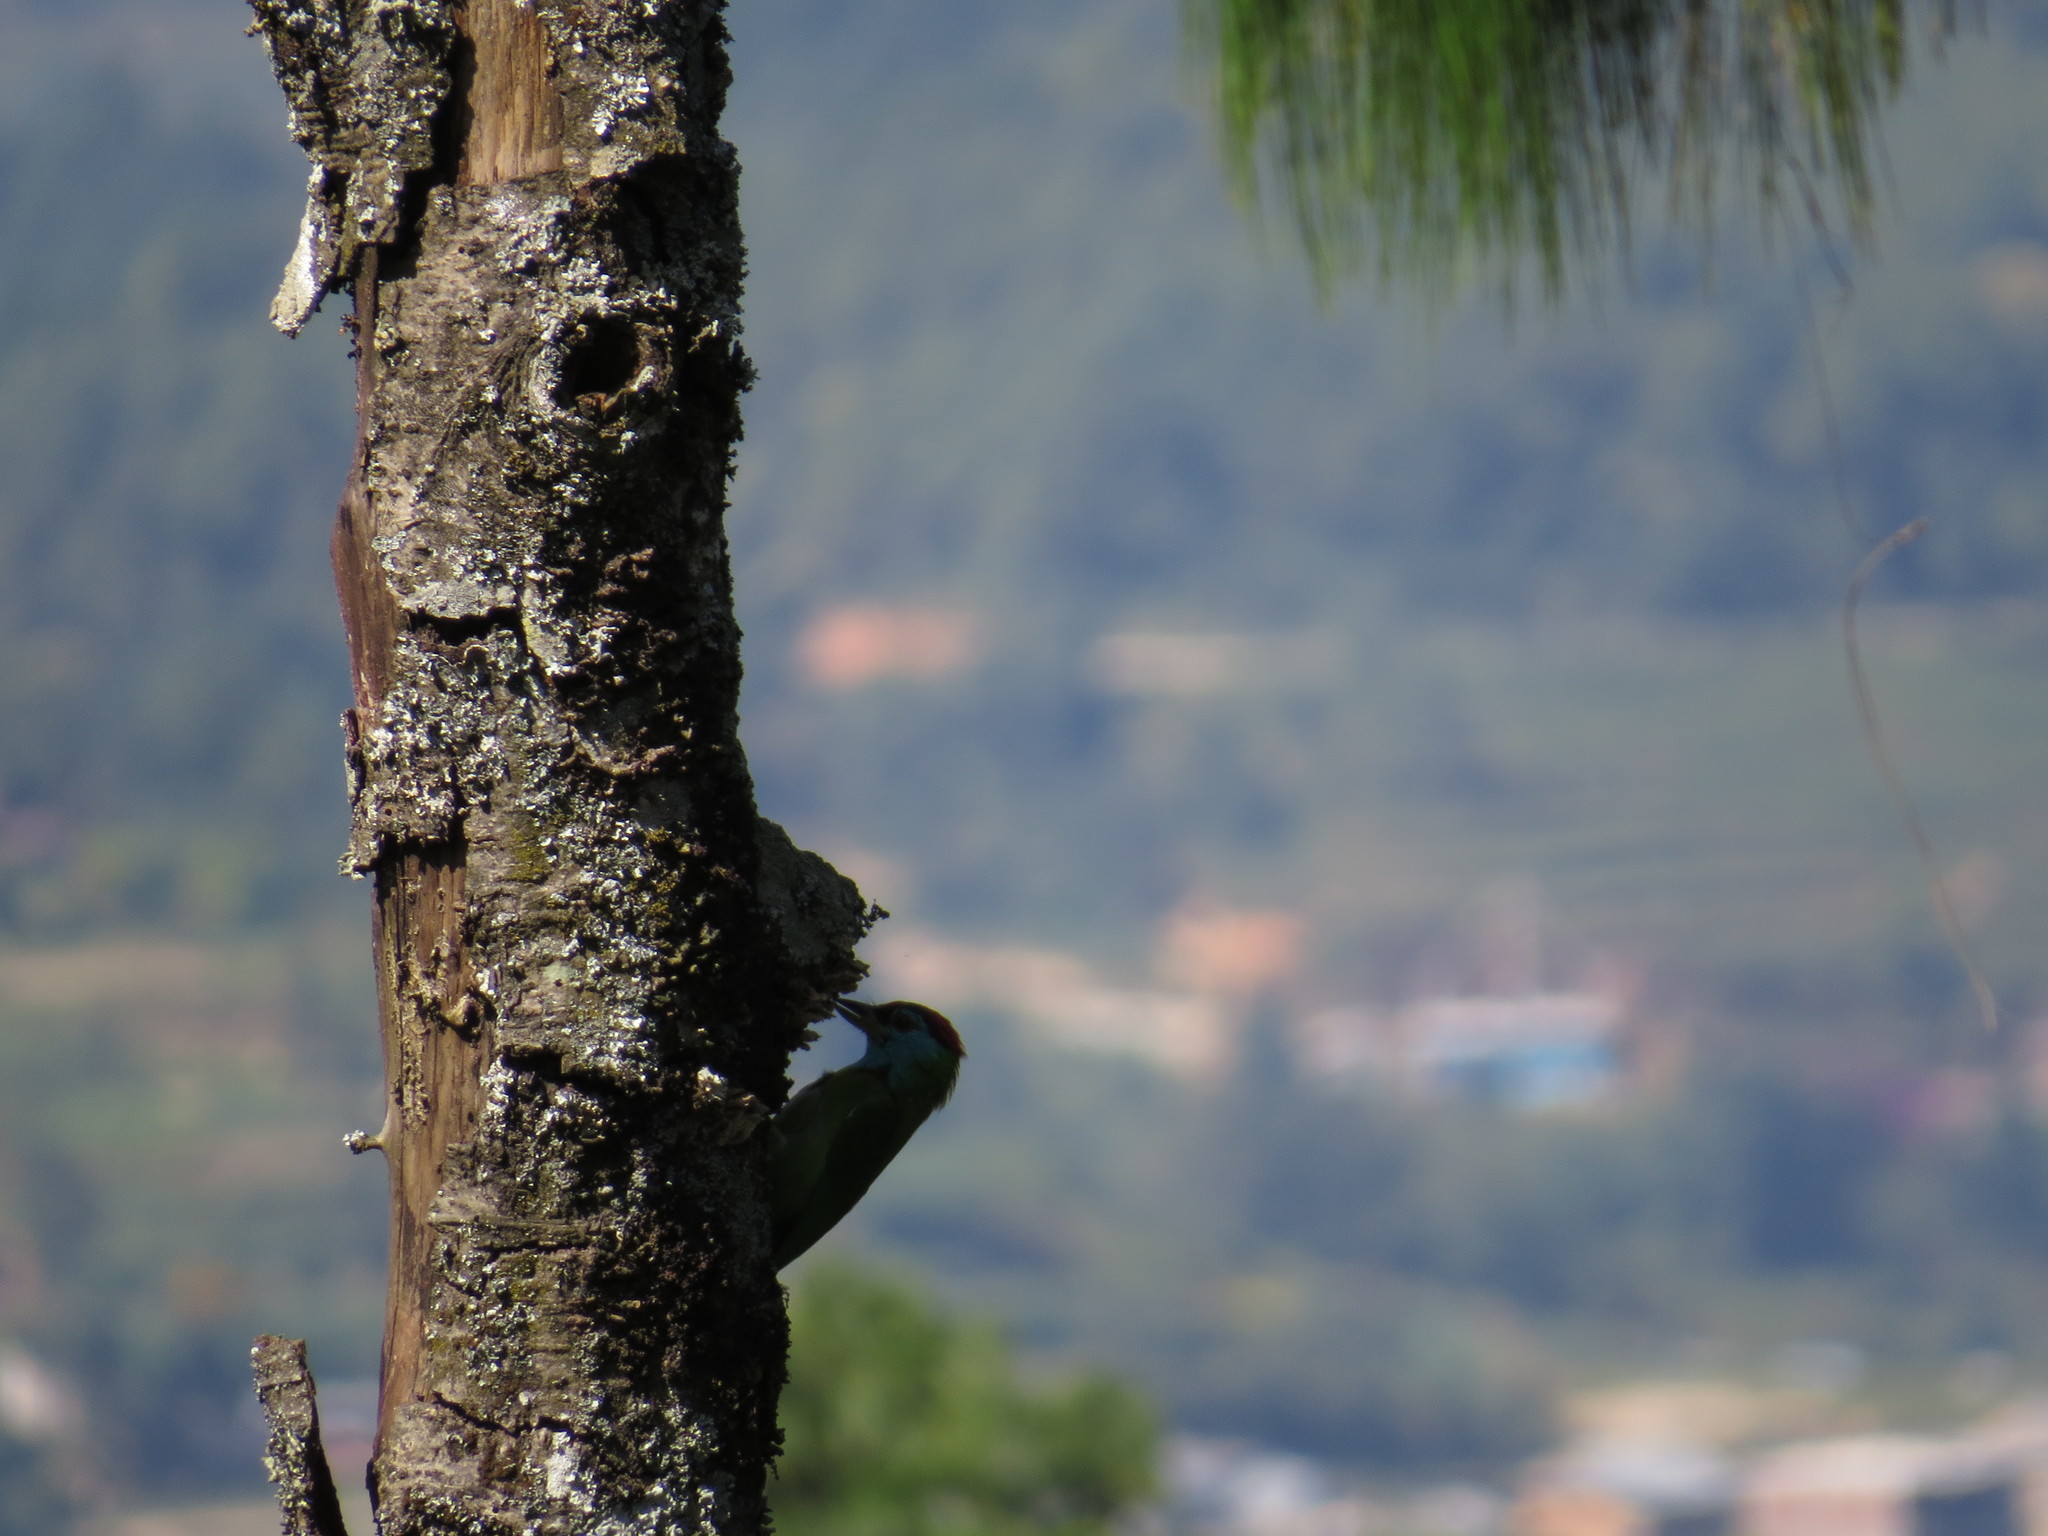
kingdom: Animalia
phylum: Chordata
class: Aves
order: Piciformes
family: Megalaimidae
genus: Psilopogon
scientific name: Psilopogon asiaticus
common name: Blue-throated barbet
